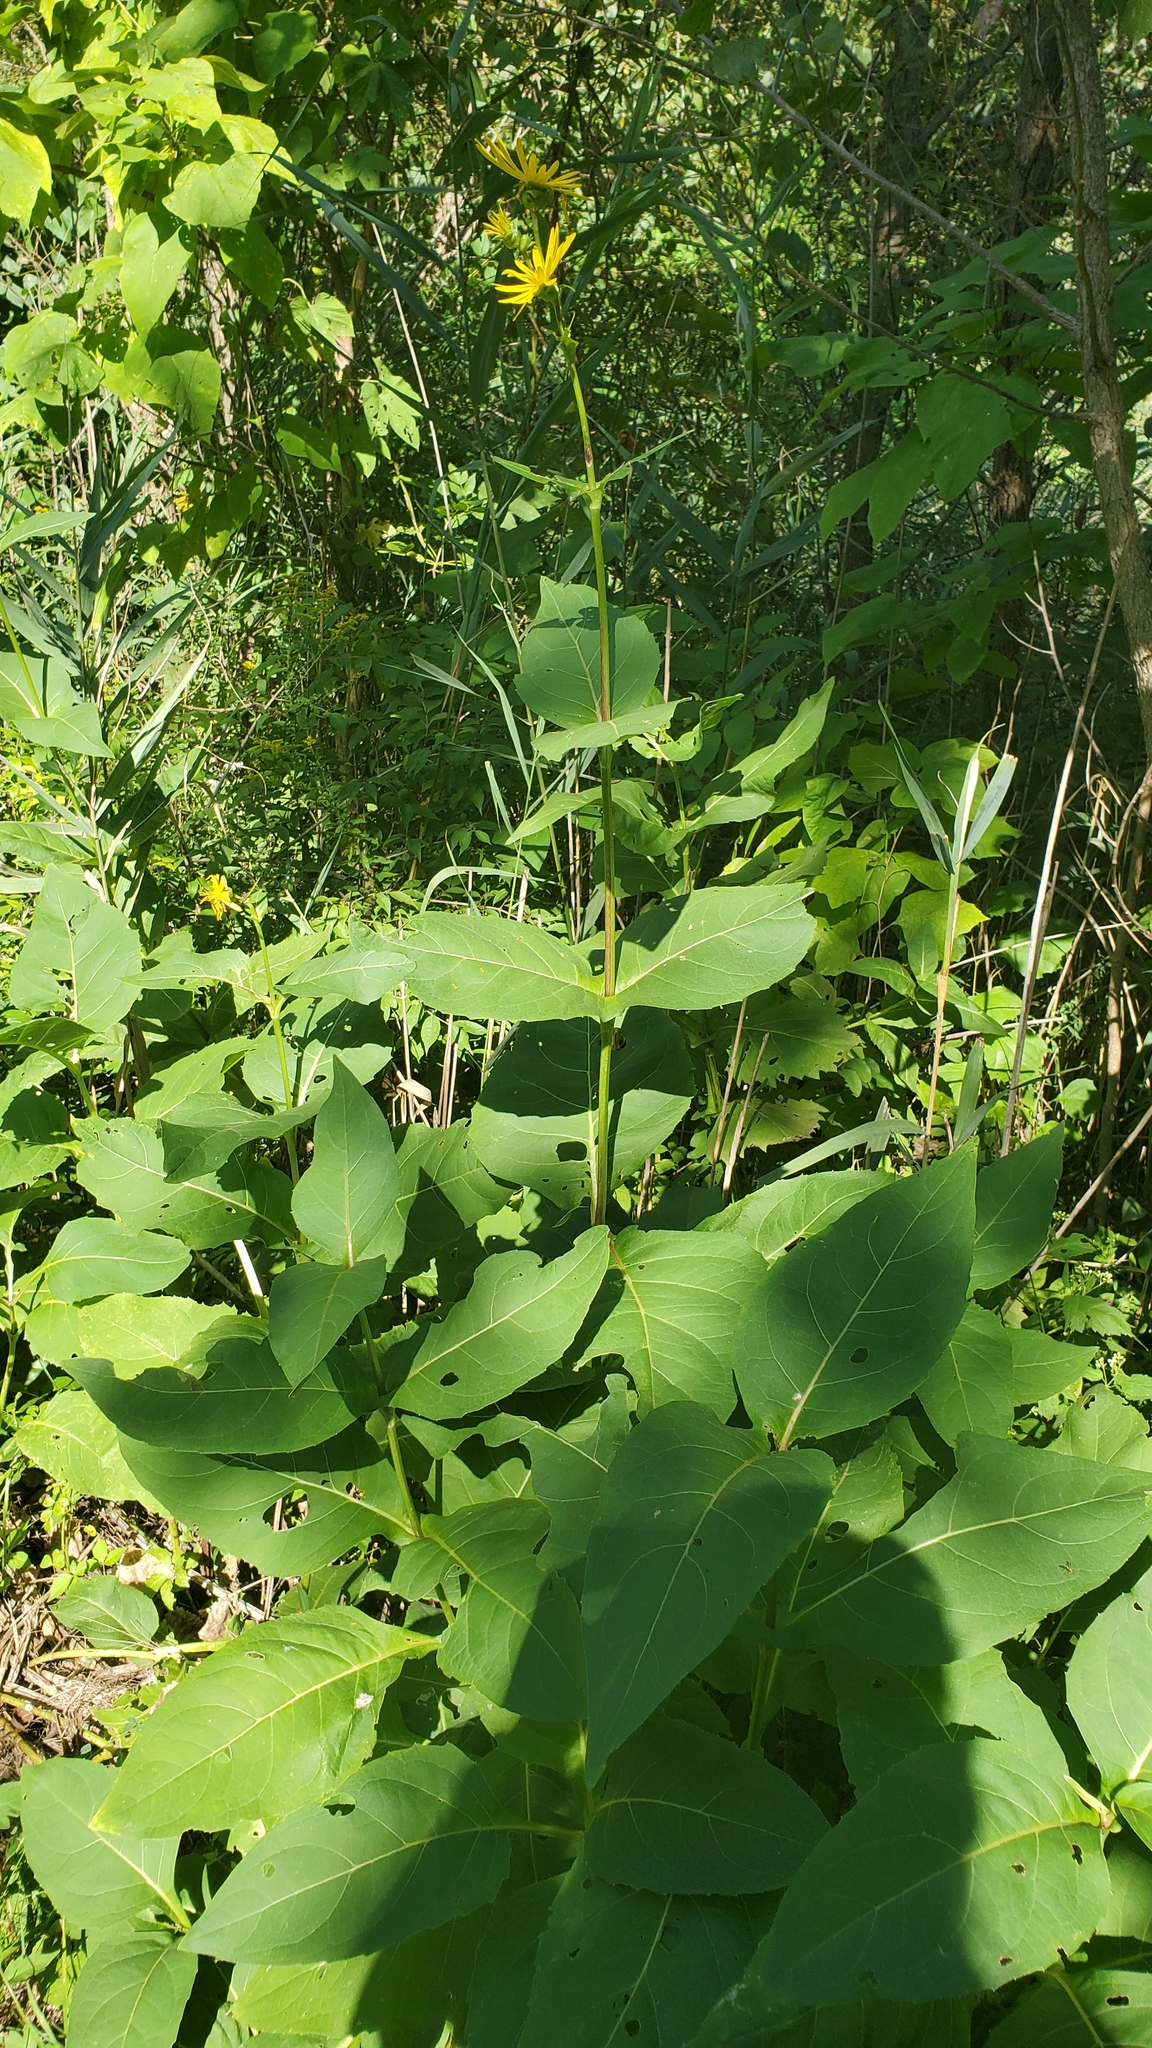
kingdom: Plantae
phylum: Tracheophyta
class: Magnoliopsida
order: Asterales
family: Asteraceae
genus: Silphium
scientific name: Silphium perfoliatum
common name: Cup-plant
